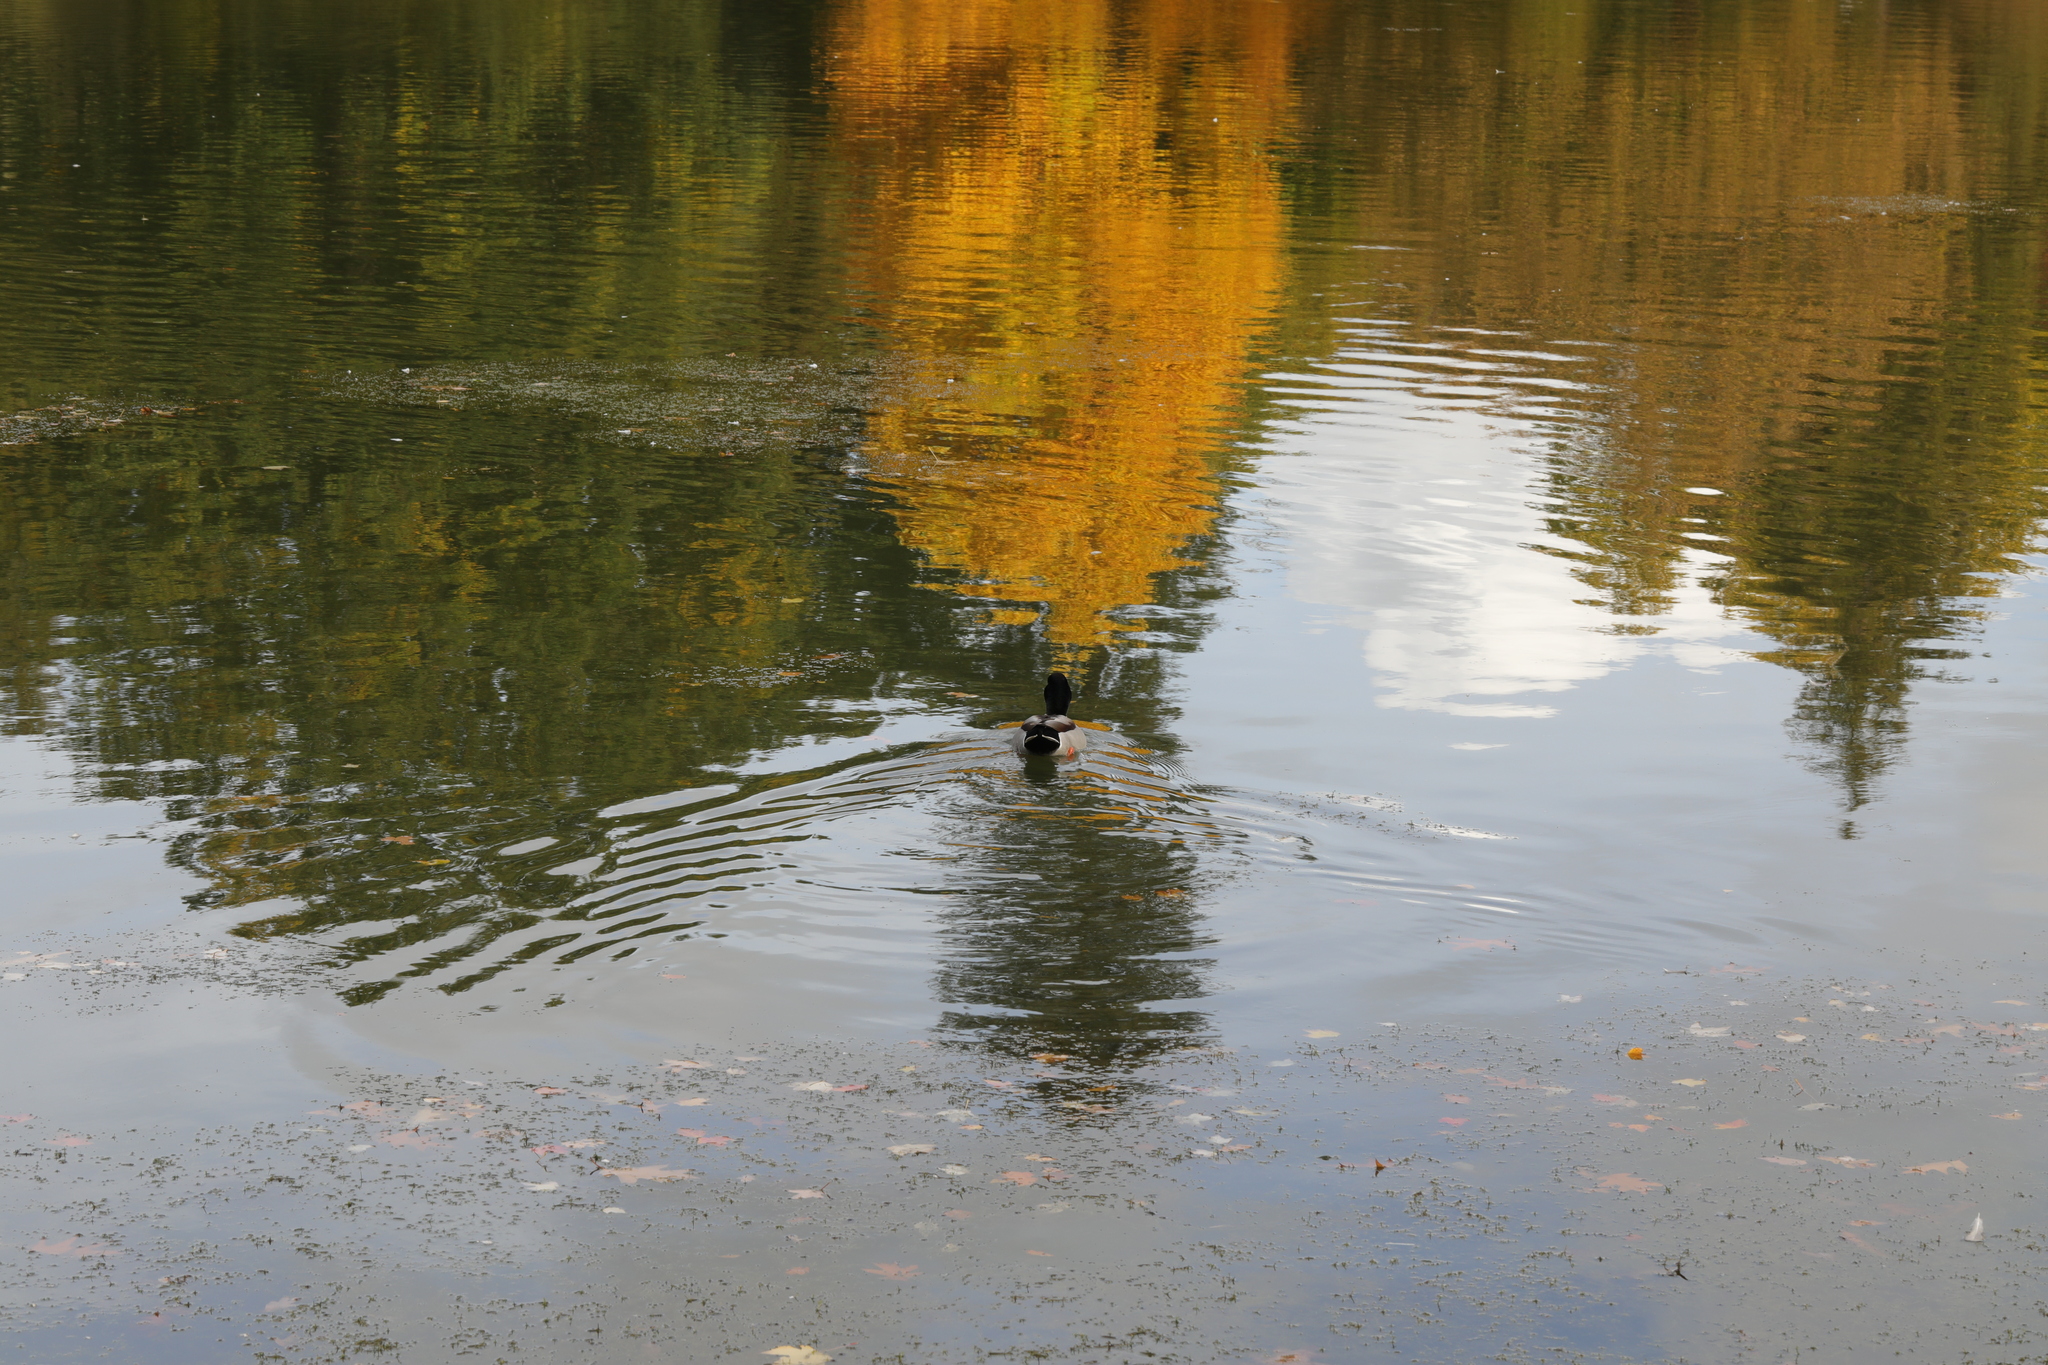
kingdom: Animalia
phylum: Chordata
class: Aves
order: Anseriformes
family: Anatidae
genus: Anas
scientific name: Anas platyrhynchos
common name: Mallard
